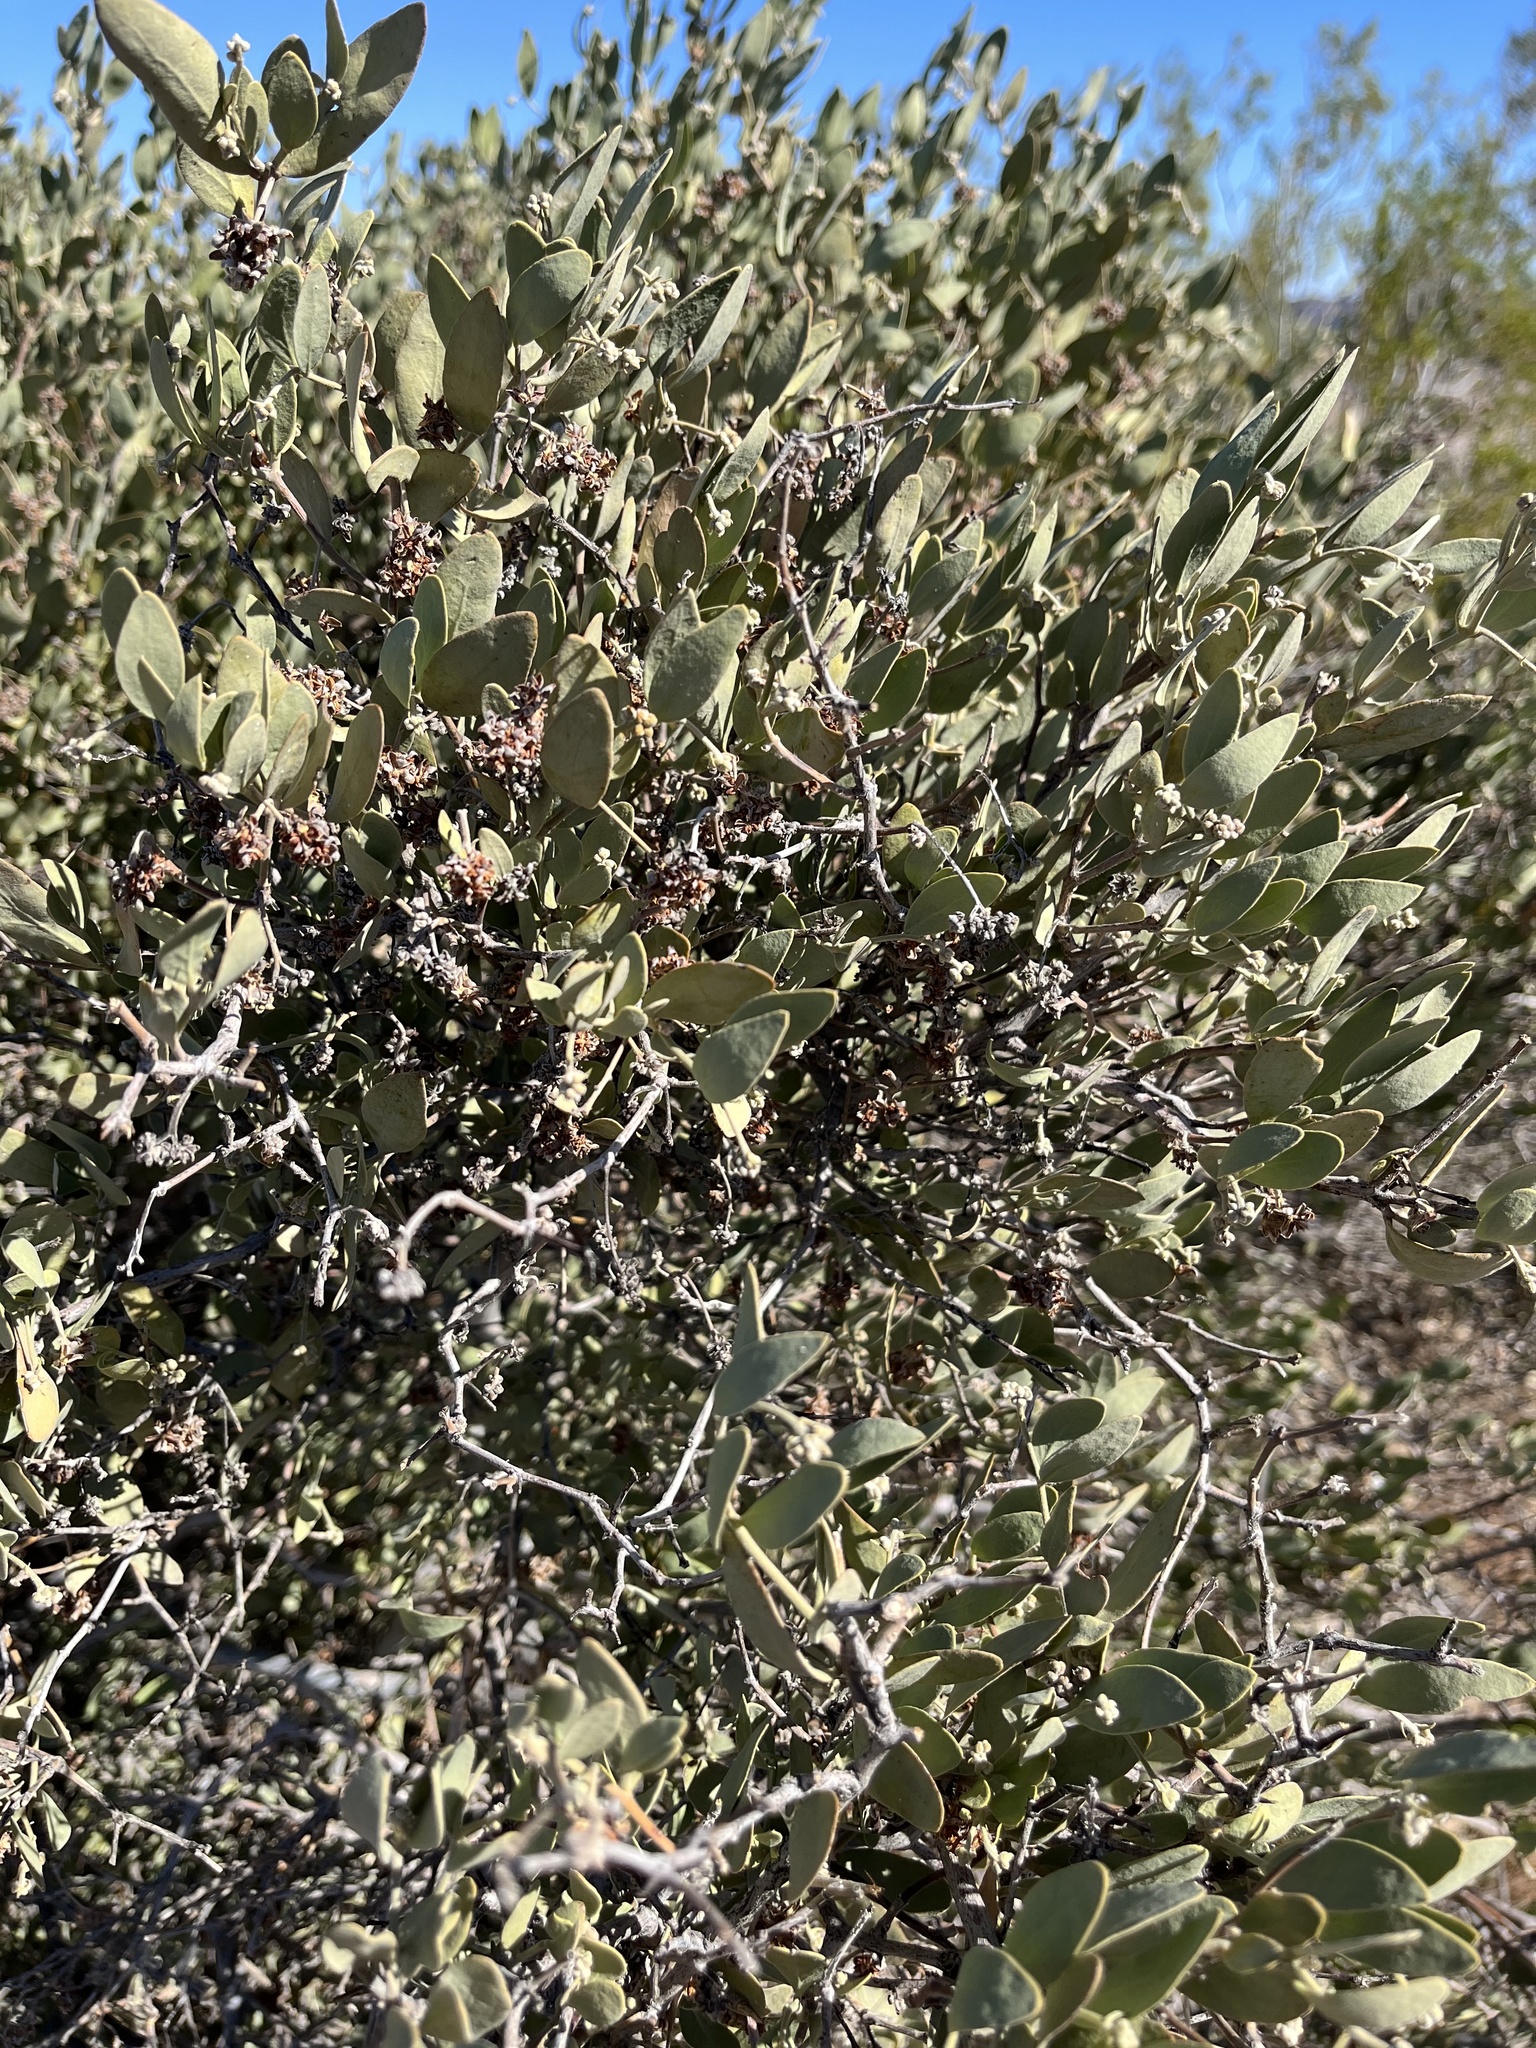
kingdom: Plantae
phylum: Tracheophyta
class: Magnoliopsida
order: Caryophyllales
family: Simmondsiaceae
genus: Simmondsia
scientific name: Simmondsia chinensis
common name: Jojoba
